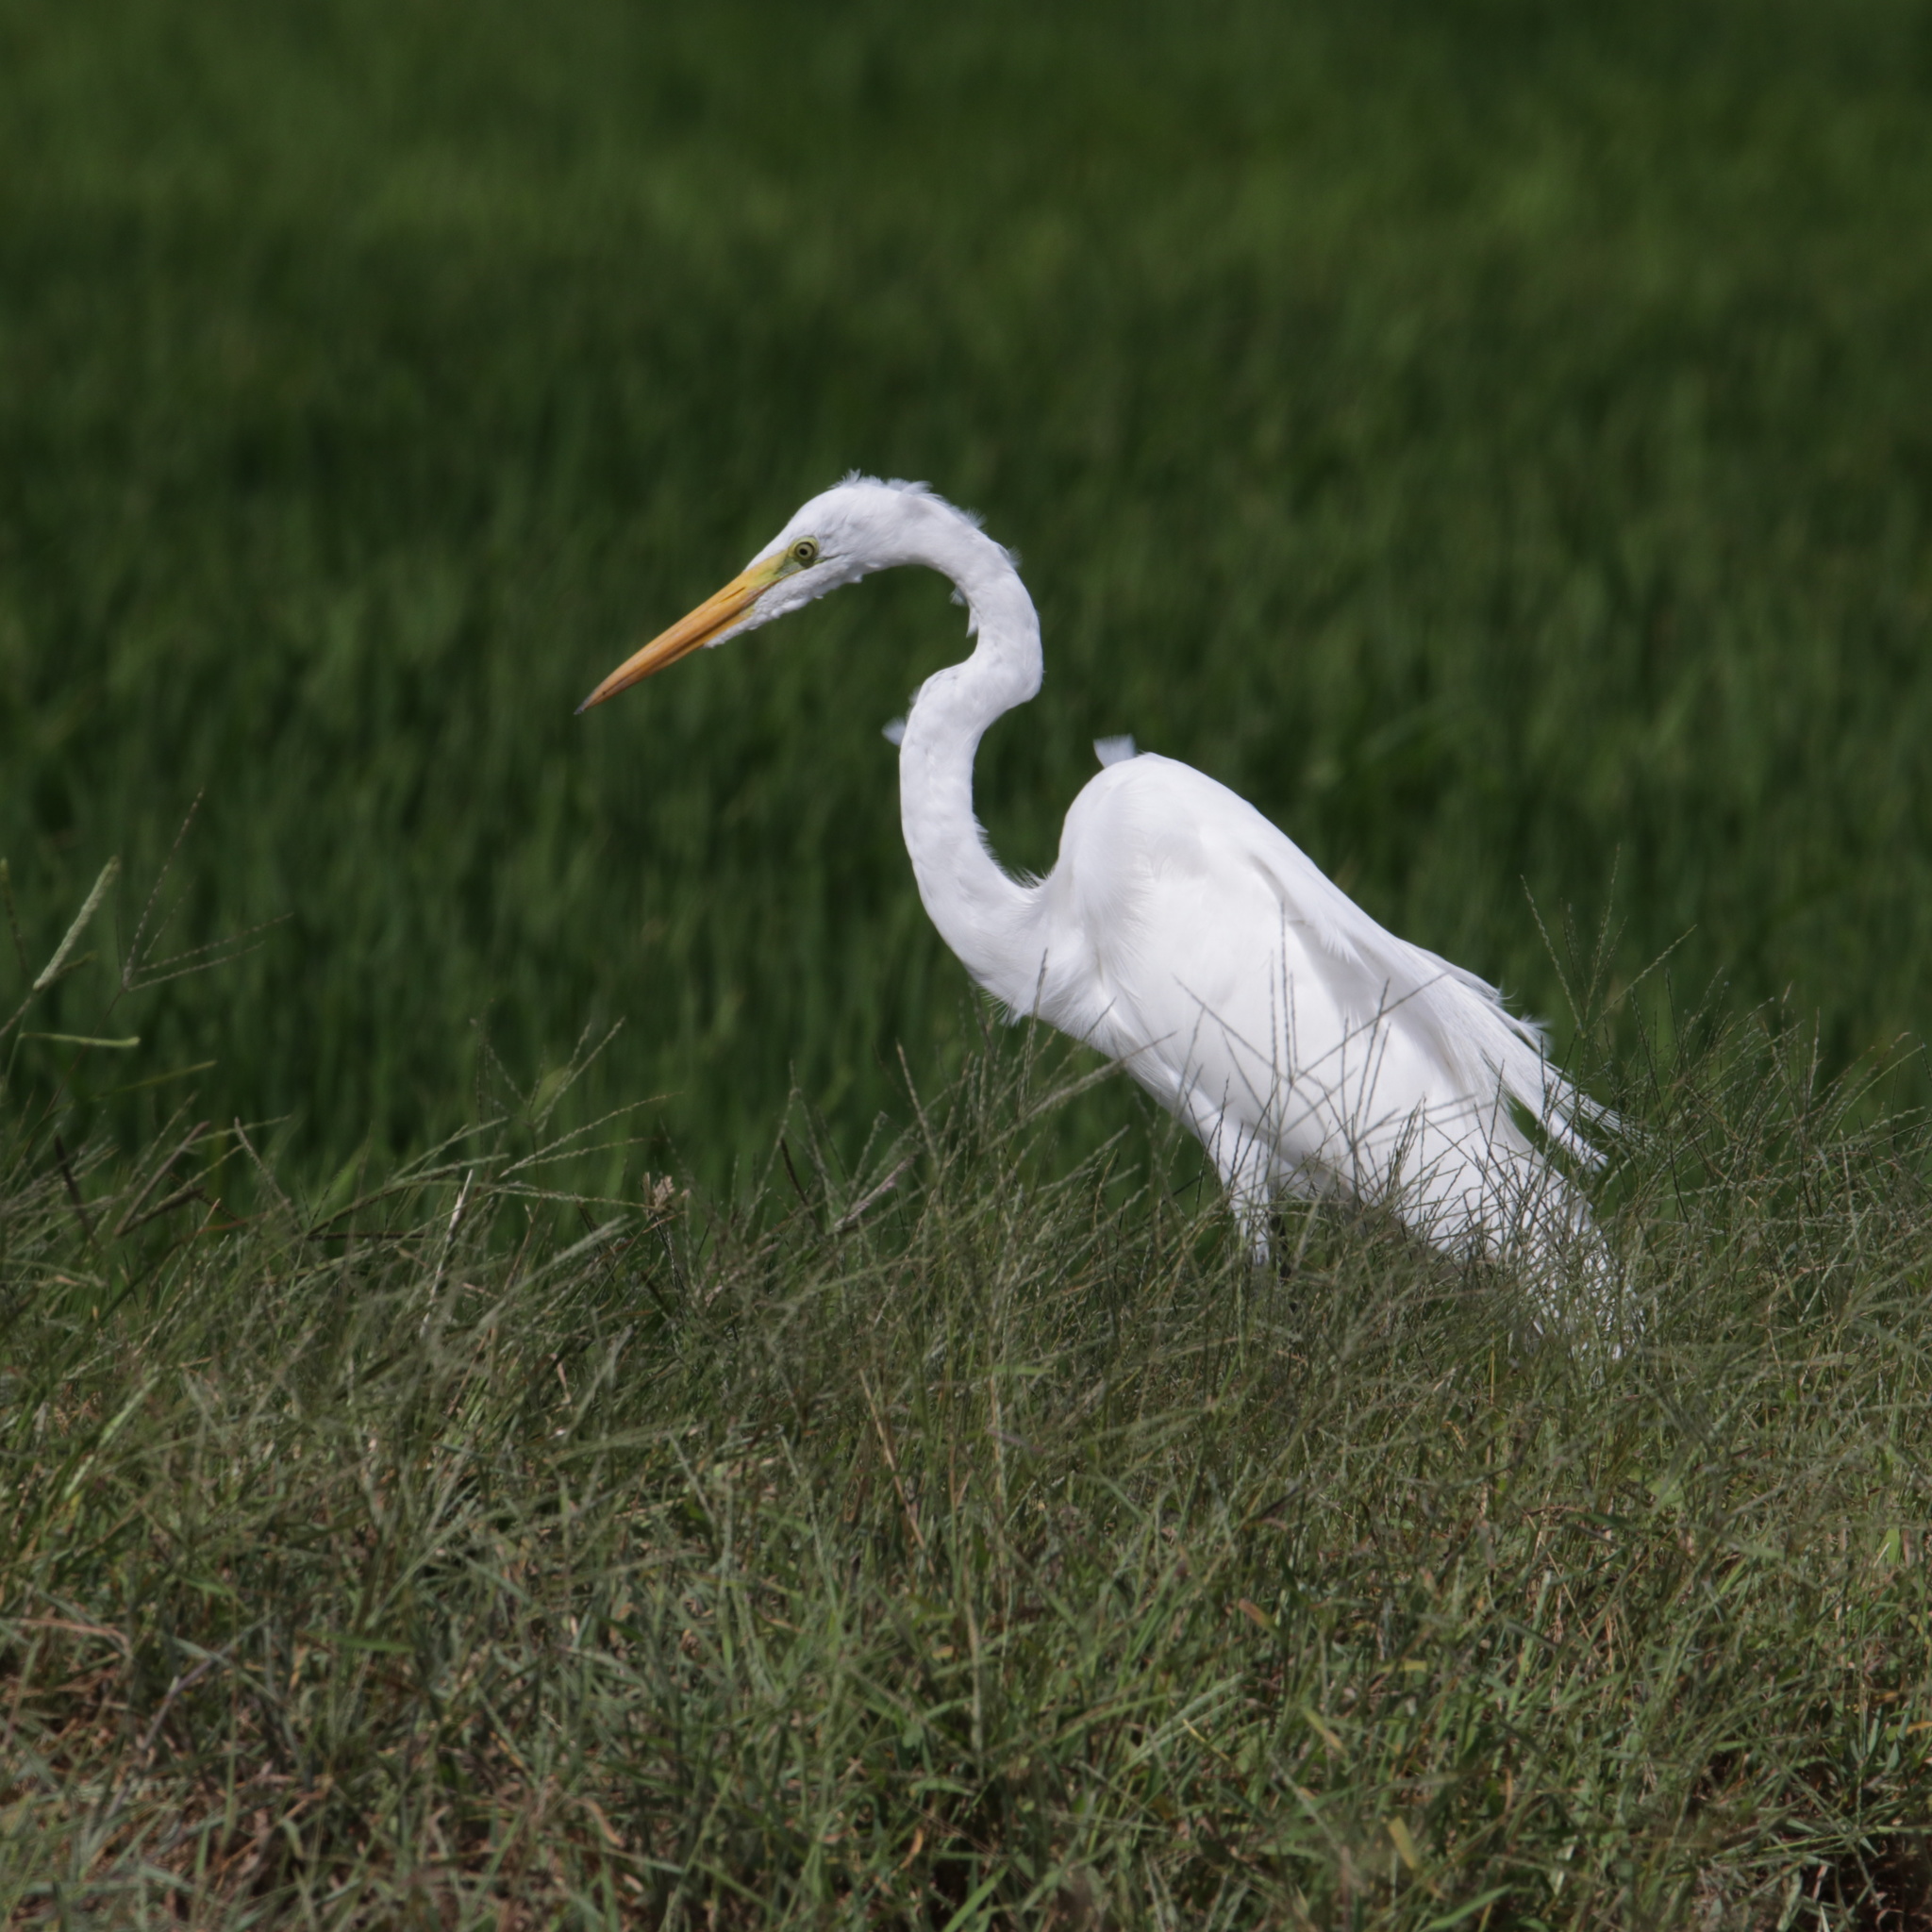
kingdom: Animalia
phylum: Chordata
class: Aves
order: Pelecaniformes
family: Ardeidae
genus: Ardea
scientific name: Ardea alba
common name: Great egret
